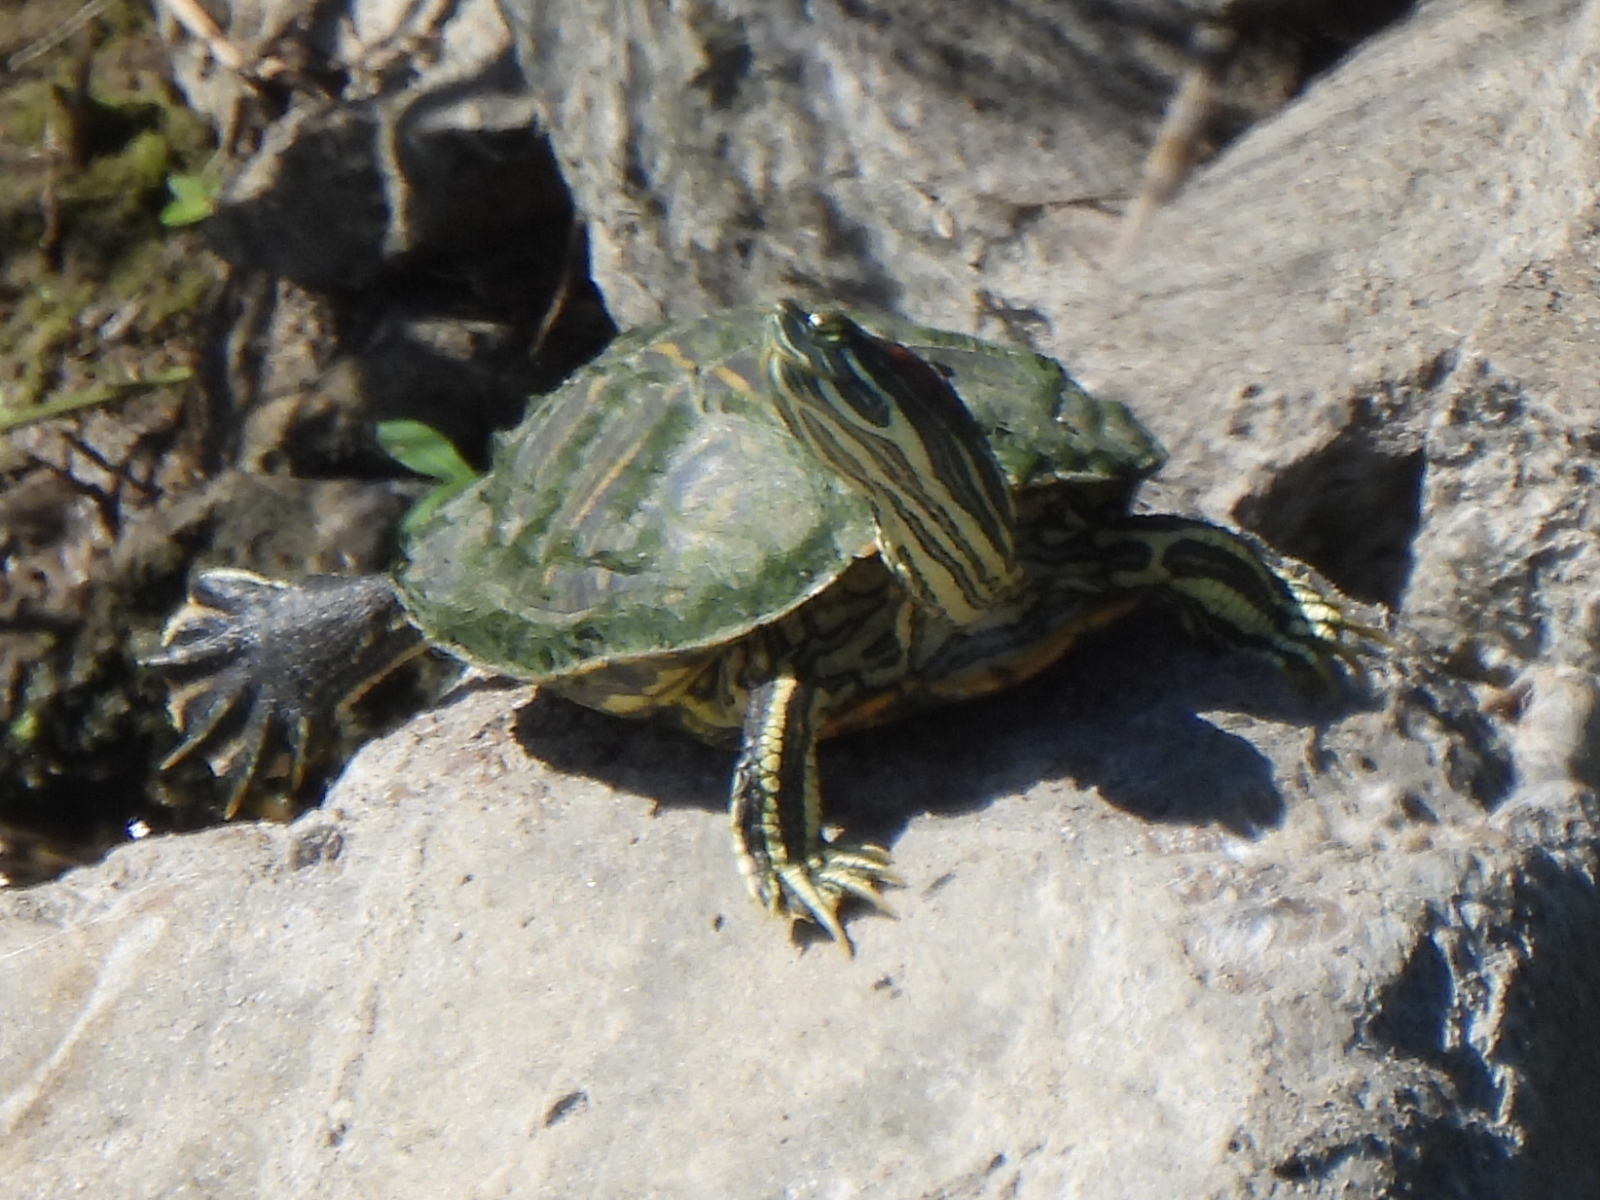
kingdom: Animalia
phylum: Chordata
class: Testudines
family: Emydidae
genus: Trachemys
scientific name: Trachemys scripta
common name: Slider
